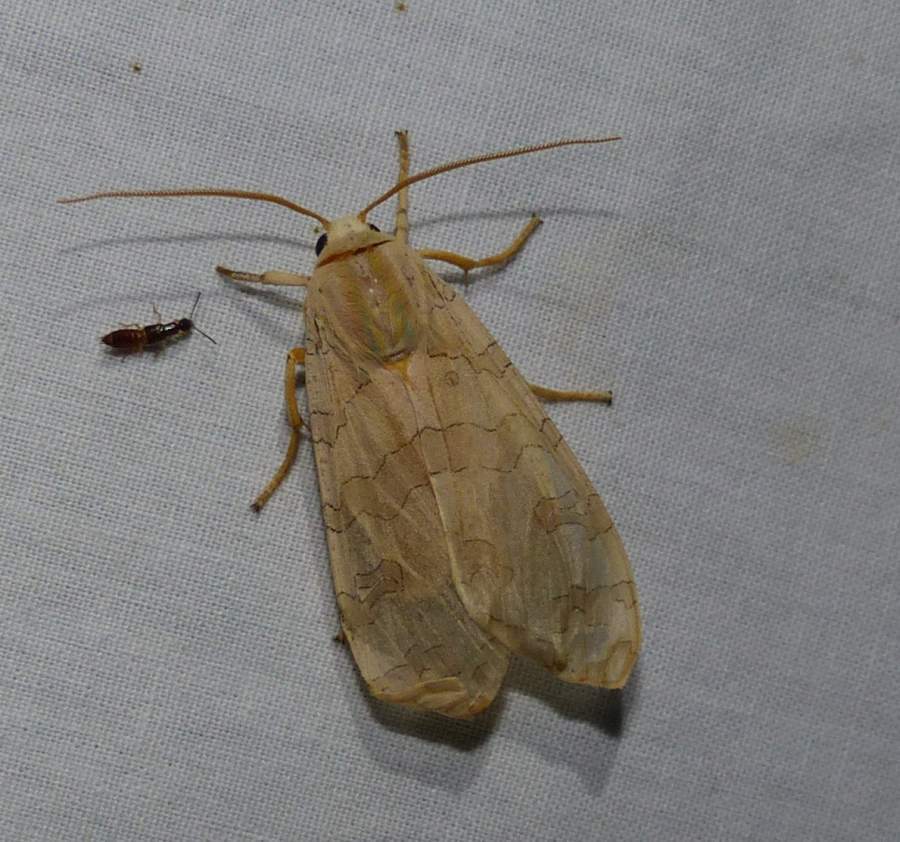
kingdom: Animalia
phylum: Arthropoda
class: Insecta
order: Lepidoptera
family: Erebidae
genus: Halysidota
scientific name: Halysidota tessellaris
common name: Banded tussock moth
